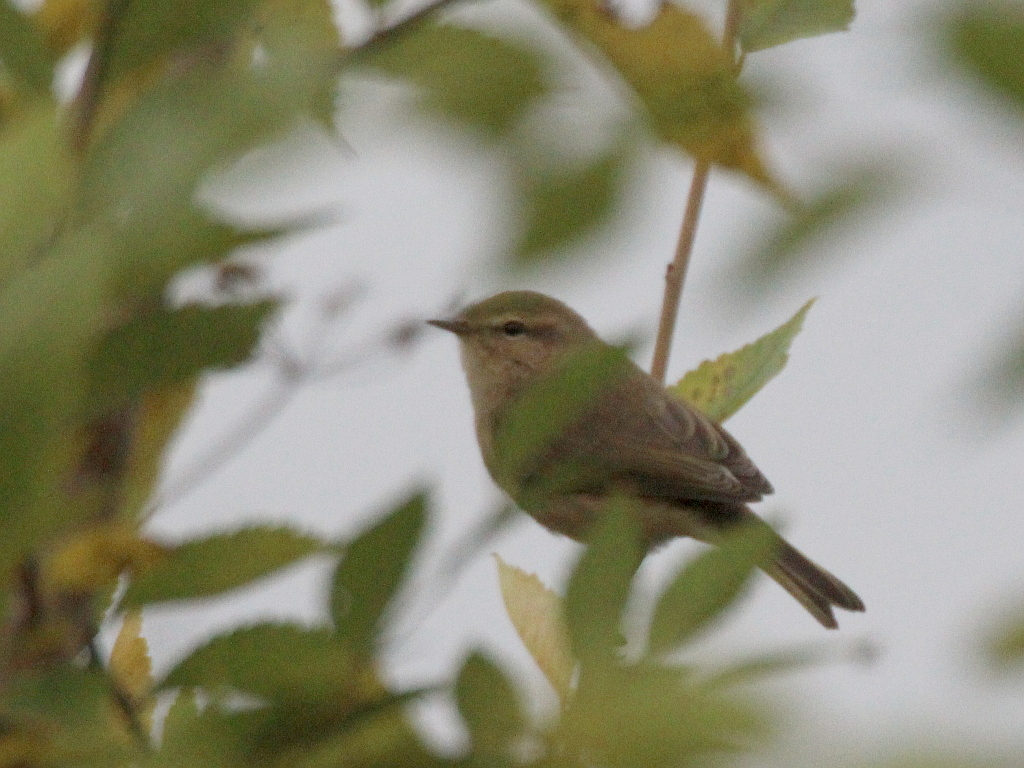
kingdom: Animalia
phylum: Chordata
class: Aves
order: Passeriformes
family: Phylloscopidae
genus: Phylloscopus
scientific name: Phylloscopus collybita
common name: Common chiffchaff
